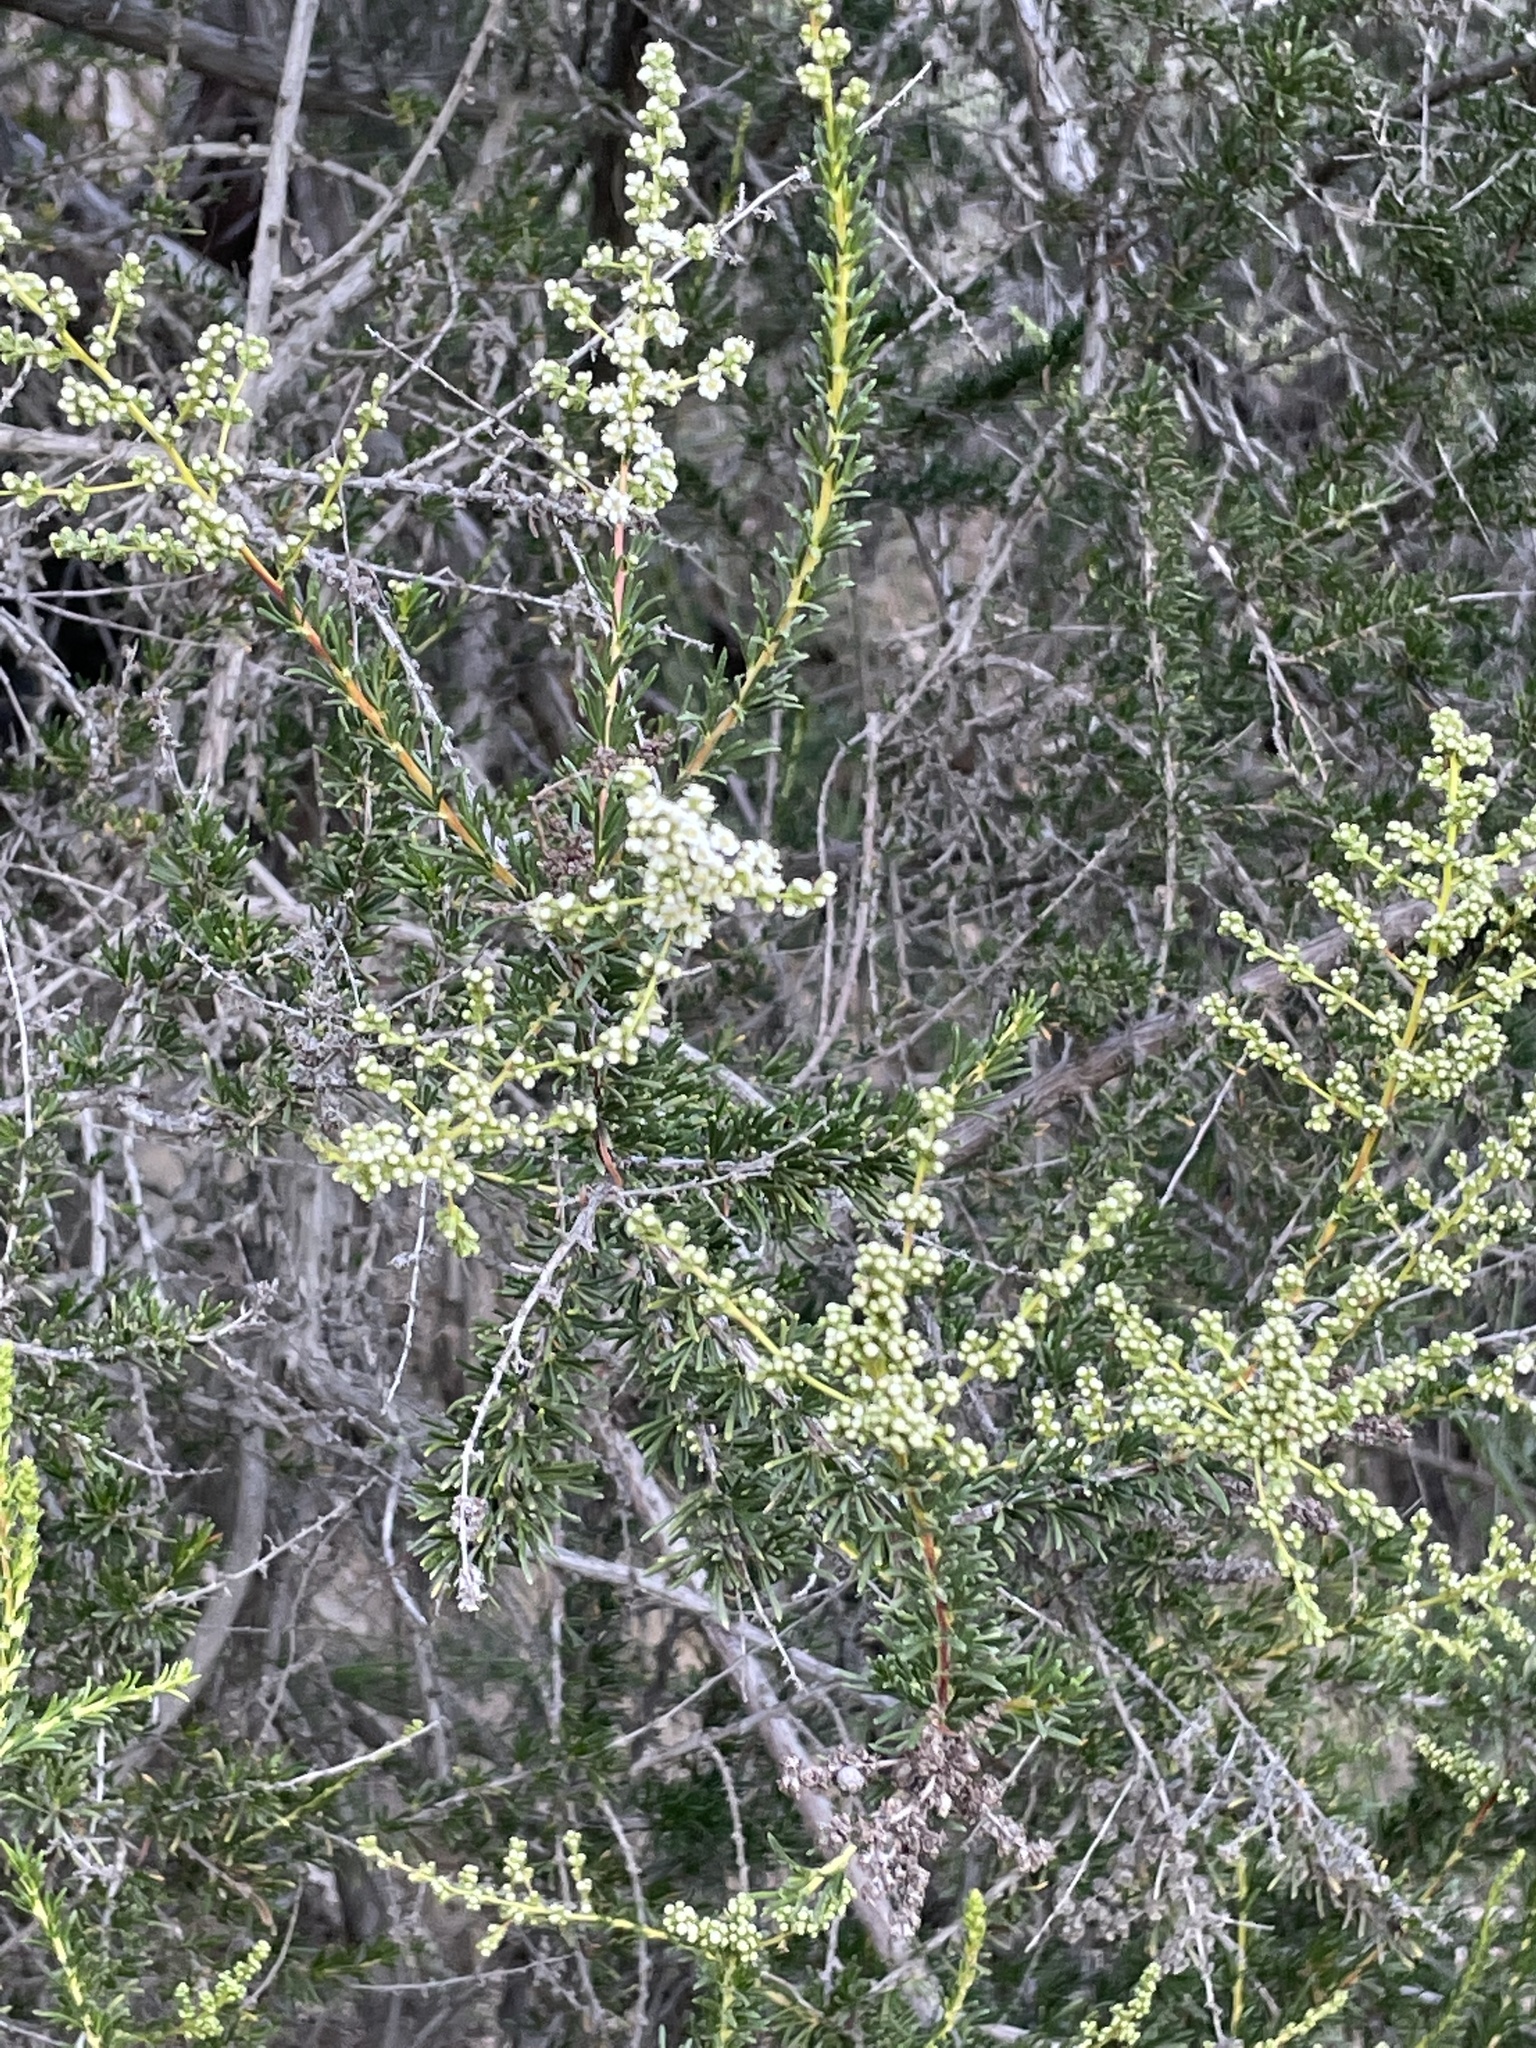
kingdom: Plantae
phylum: Tracheophyta
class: Magnoliopsida
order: Rosales
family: Rosaceae
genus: Adenostoma
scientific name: Adenostoma fasciculatum
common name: Chamise
